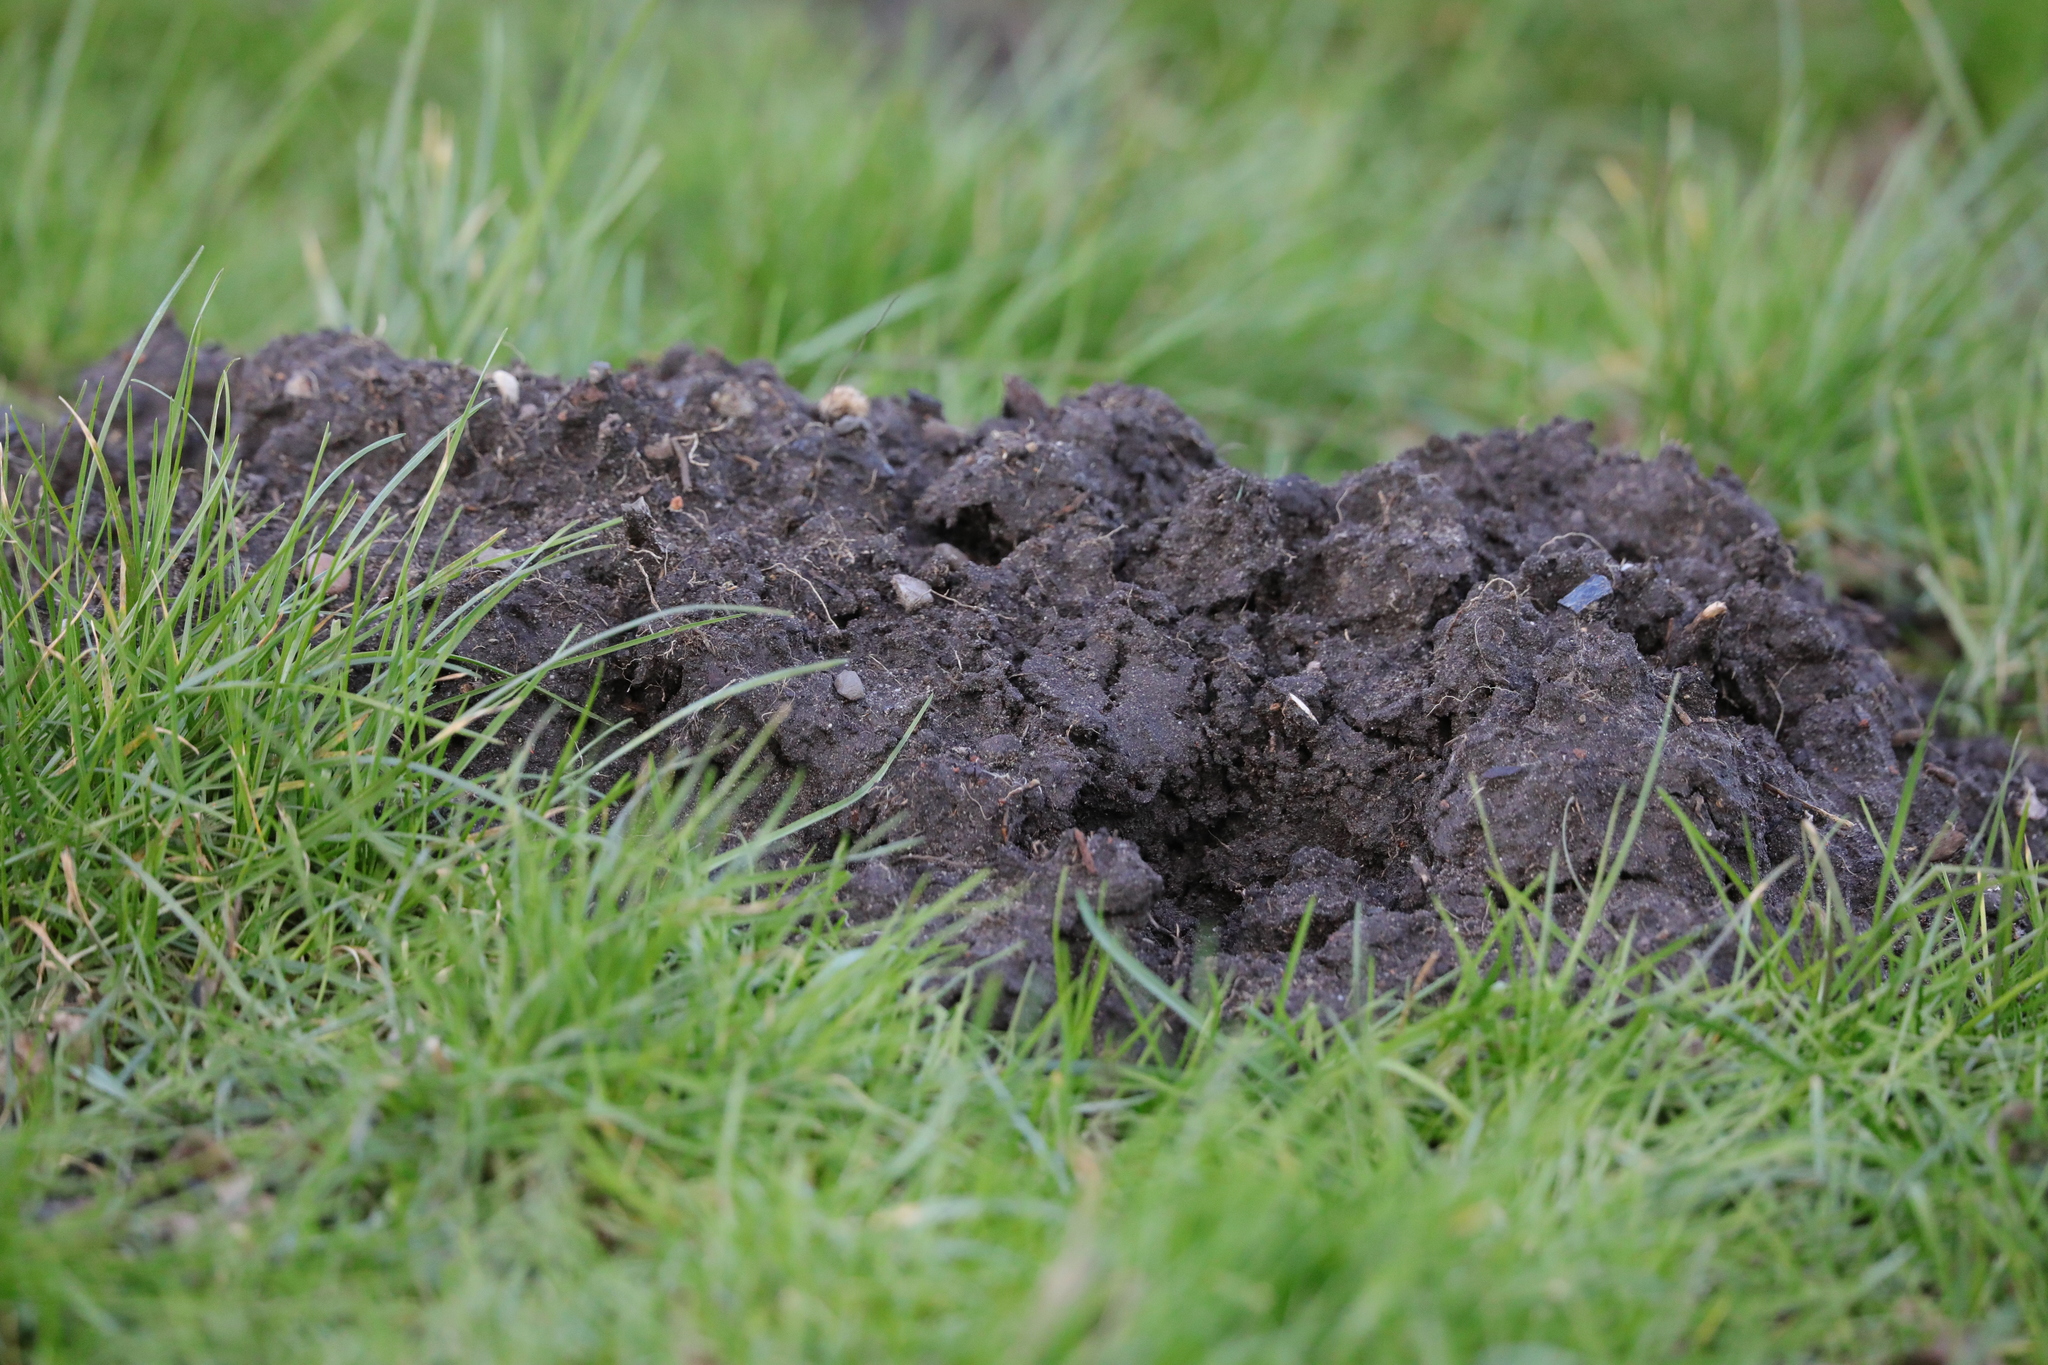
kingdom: Animalia
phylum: Chordata
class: Mammalia
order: Soricomorpha
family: Talpidae
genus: Talpa
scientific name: Talpa europaea
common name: European mole
